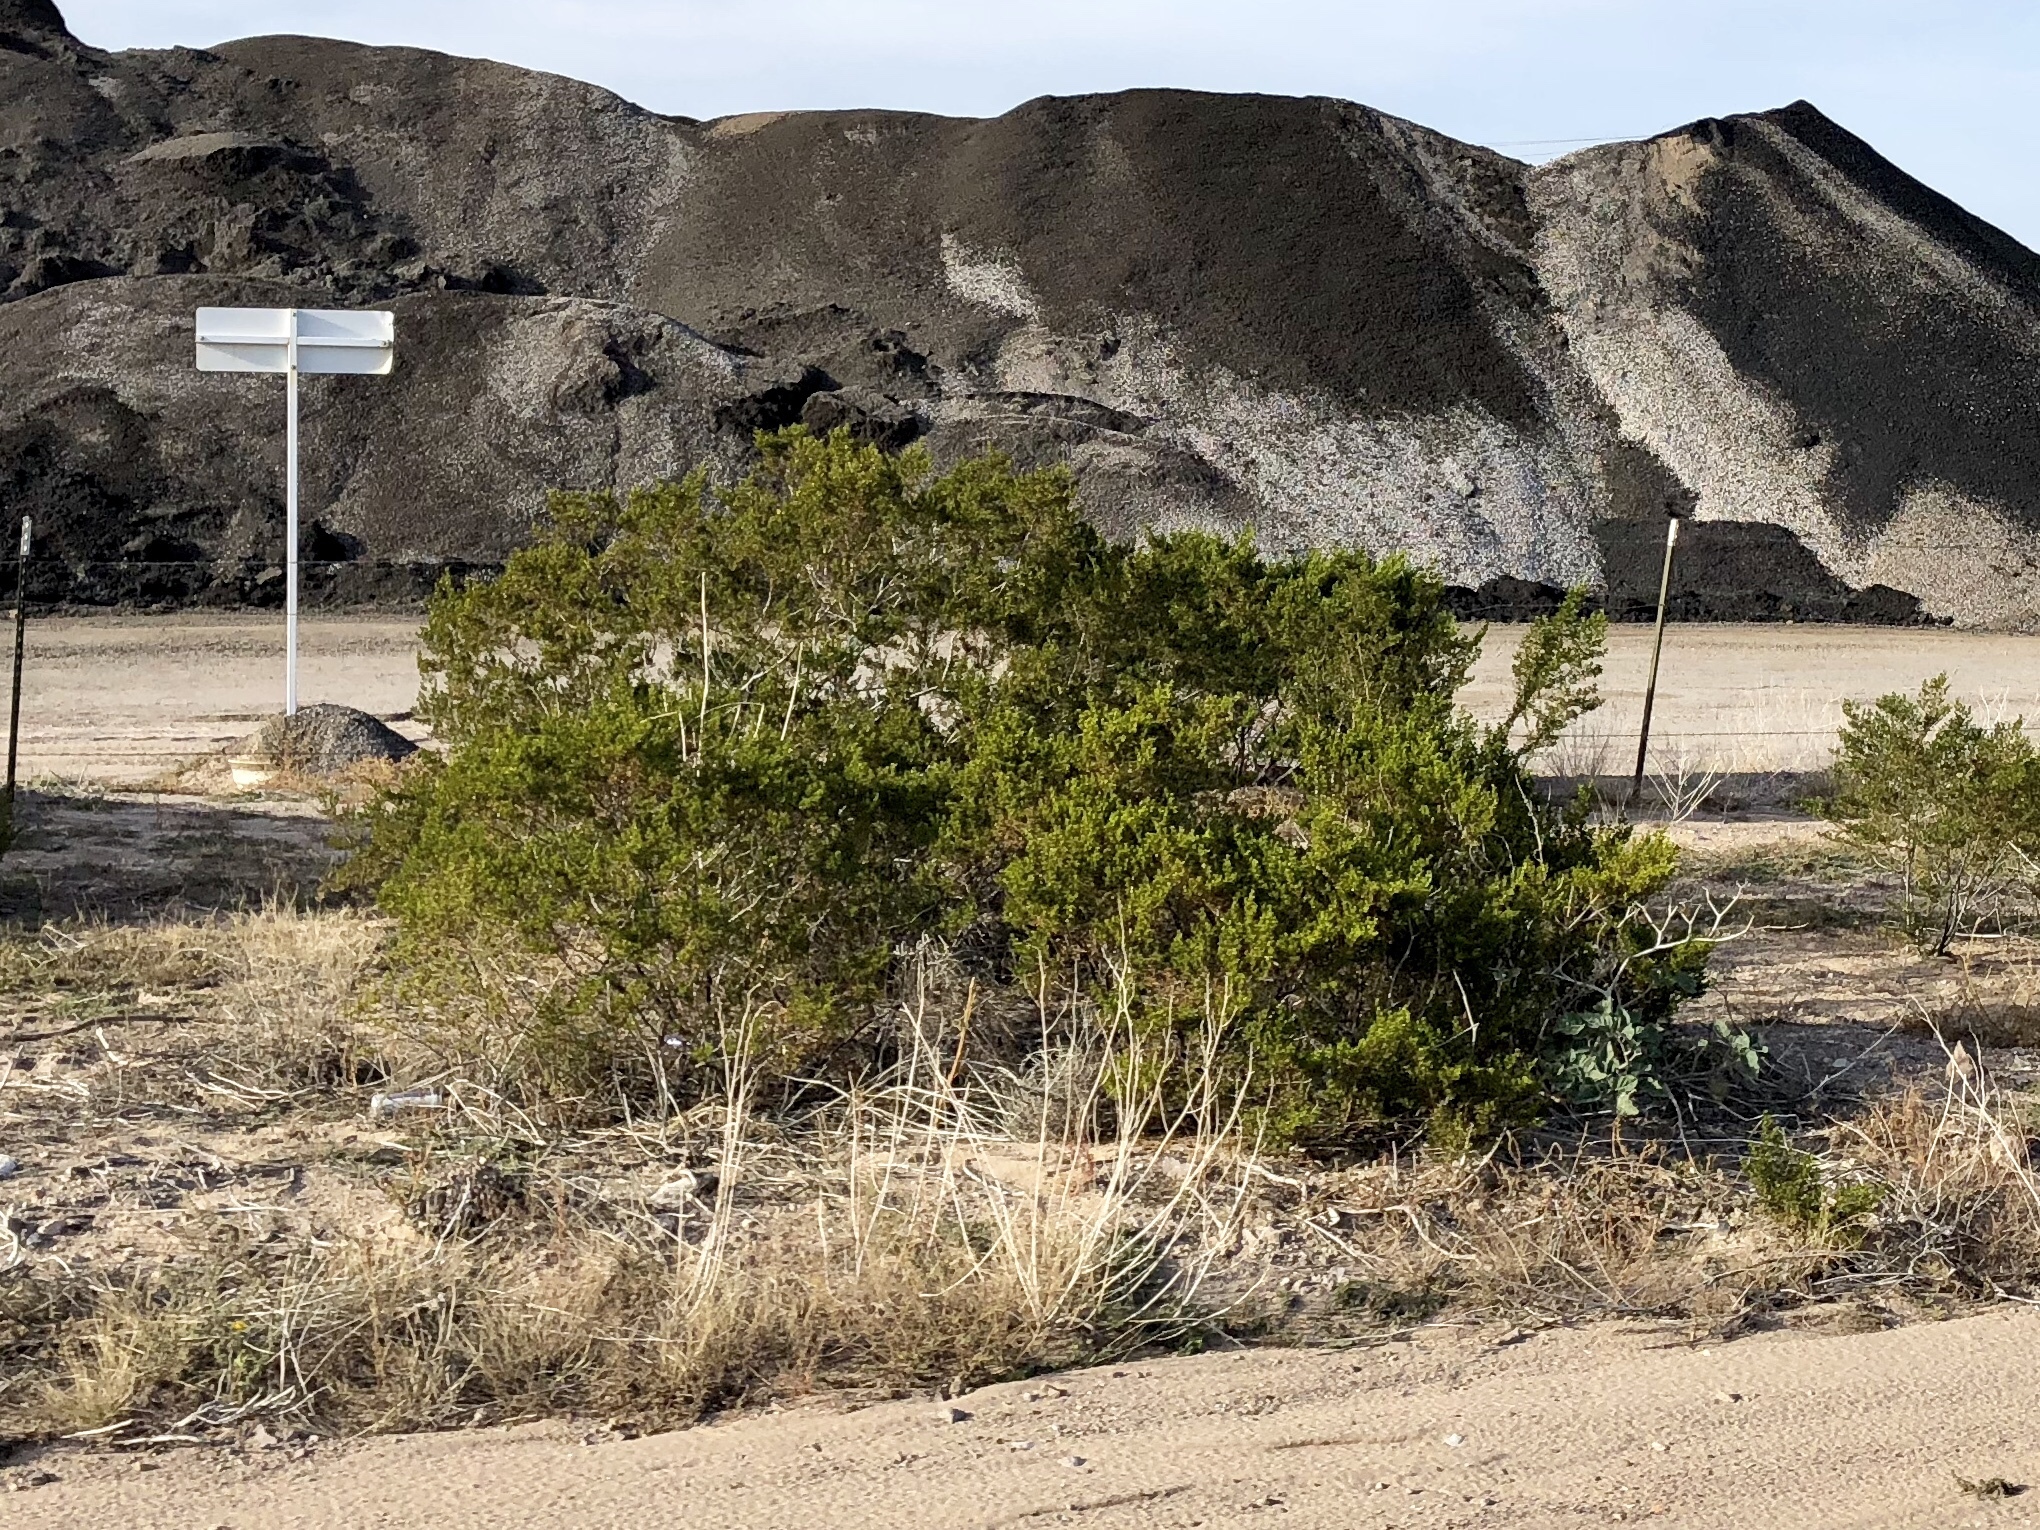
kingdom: Plantae
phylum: Tracheophyta
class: Magnoliopsida
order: Zygophyllales
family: Zygophyllaceae
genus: Larrea
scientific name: Larrea tridentata
